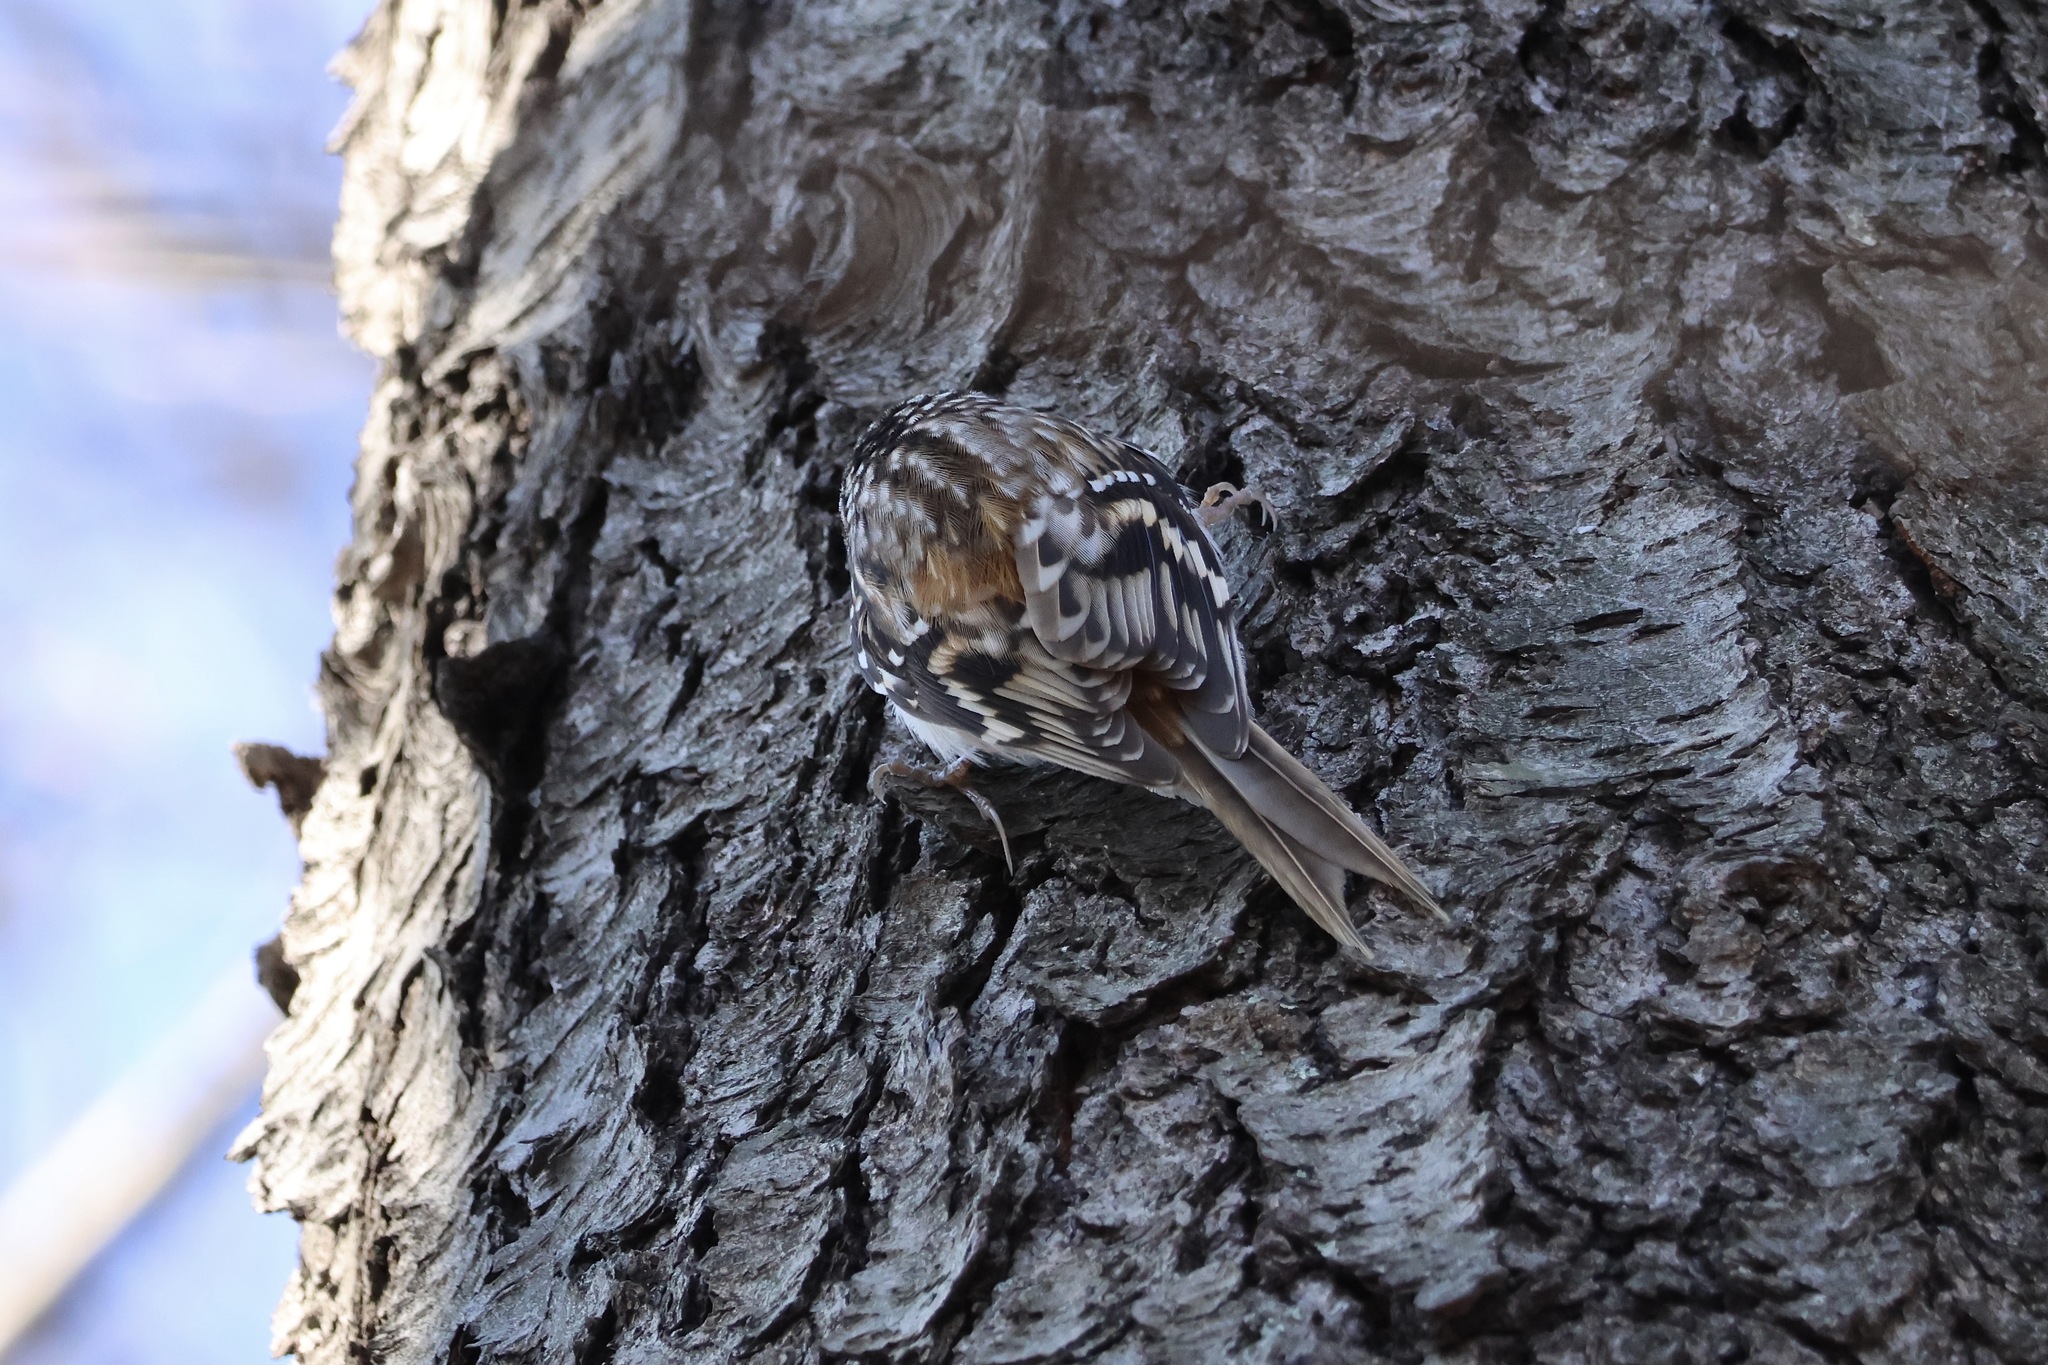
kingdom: Animalia
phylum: Chordata
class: Aves
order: Passeriformes
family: Certhiidae
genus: Certhia
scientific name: Certhia americana
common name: Brown creeper
